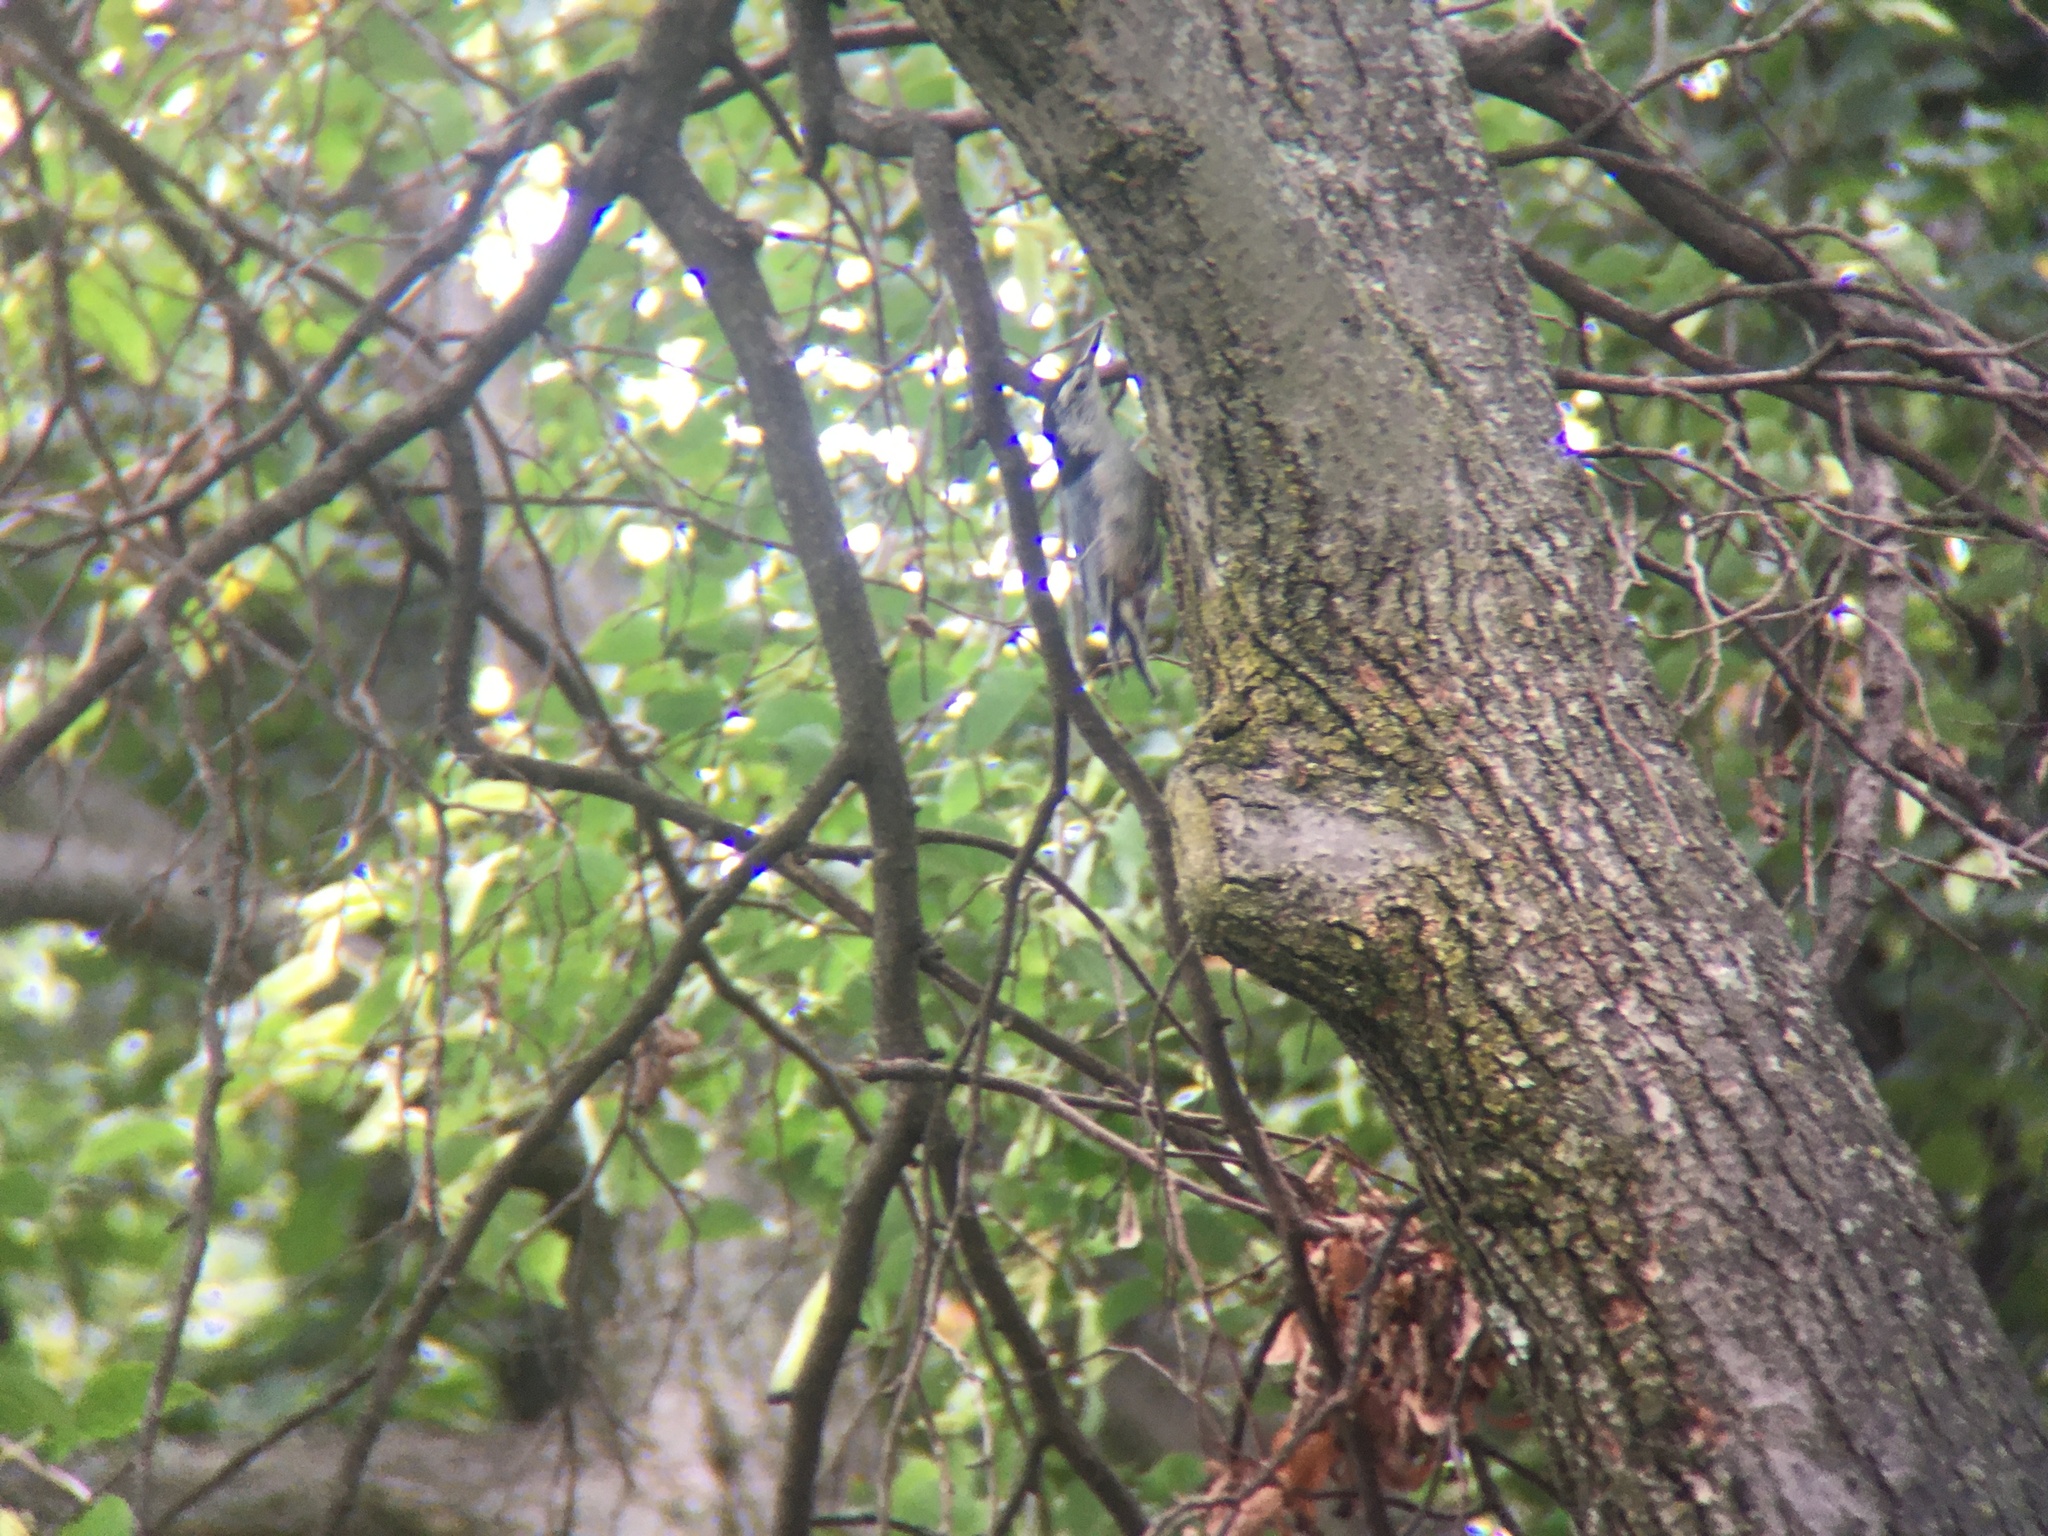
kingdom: Animalia
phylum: Chordata
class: Aves
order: Passeriformes
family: Sittidae
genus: Sitta
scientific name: Sitta carolinensis
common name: White-breasted nuthatch
